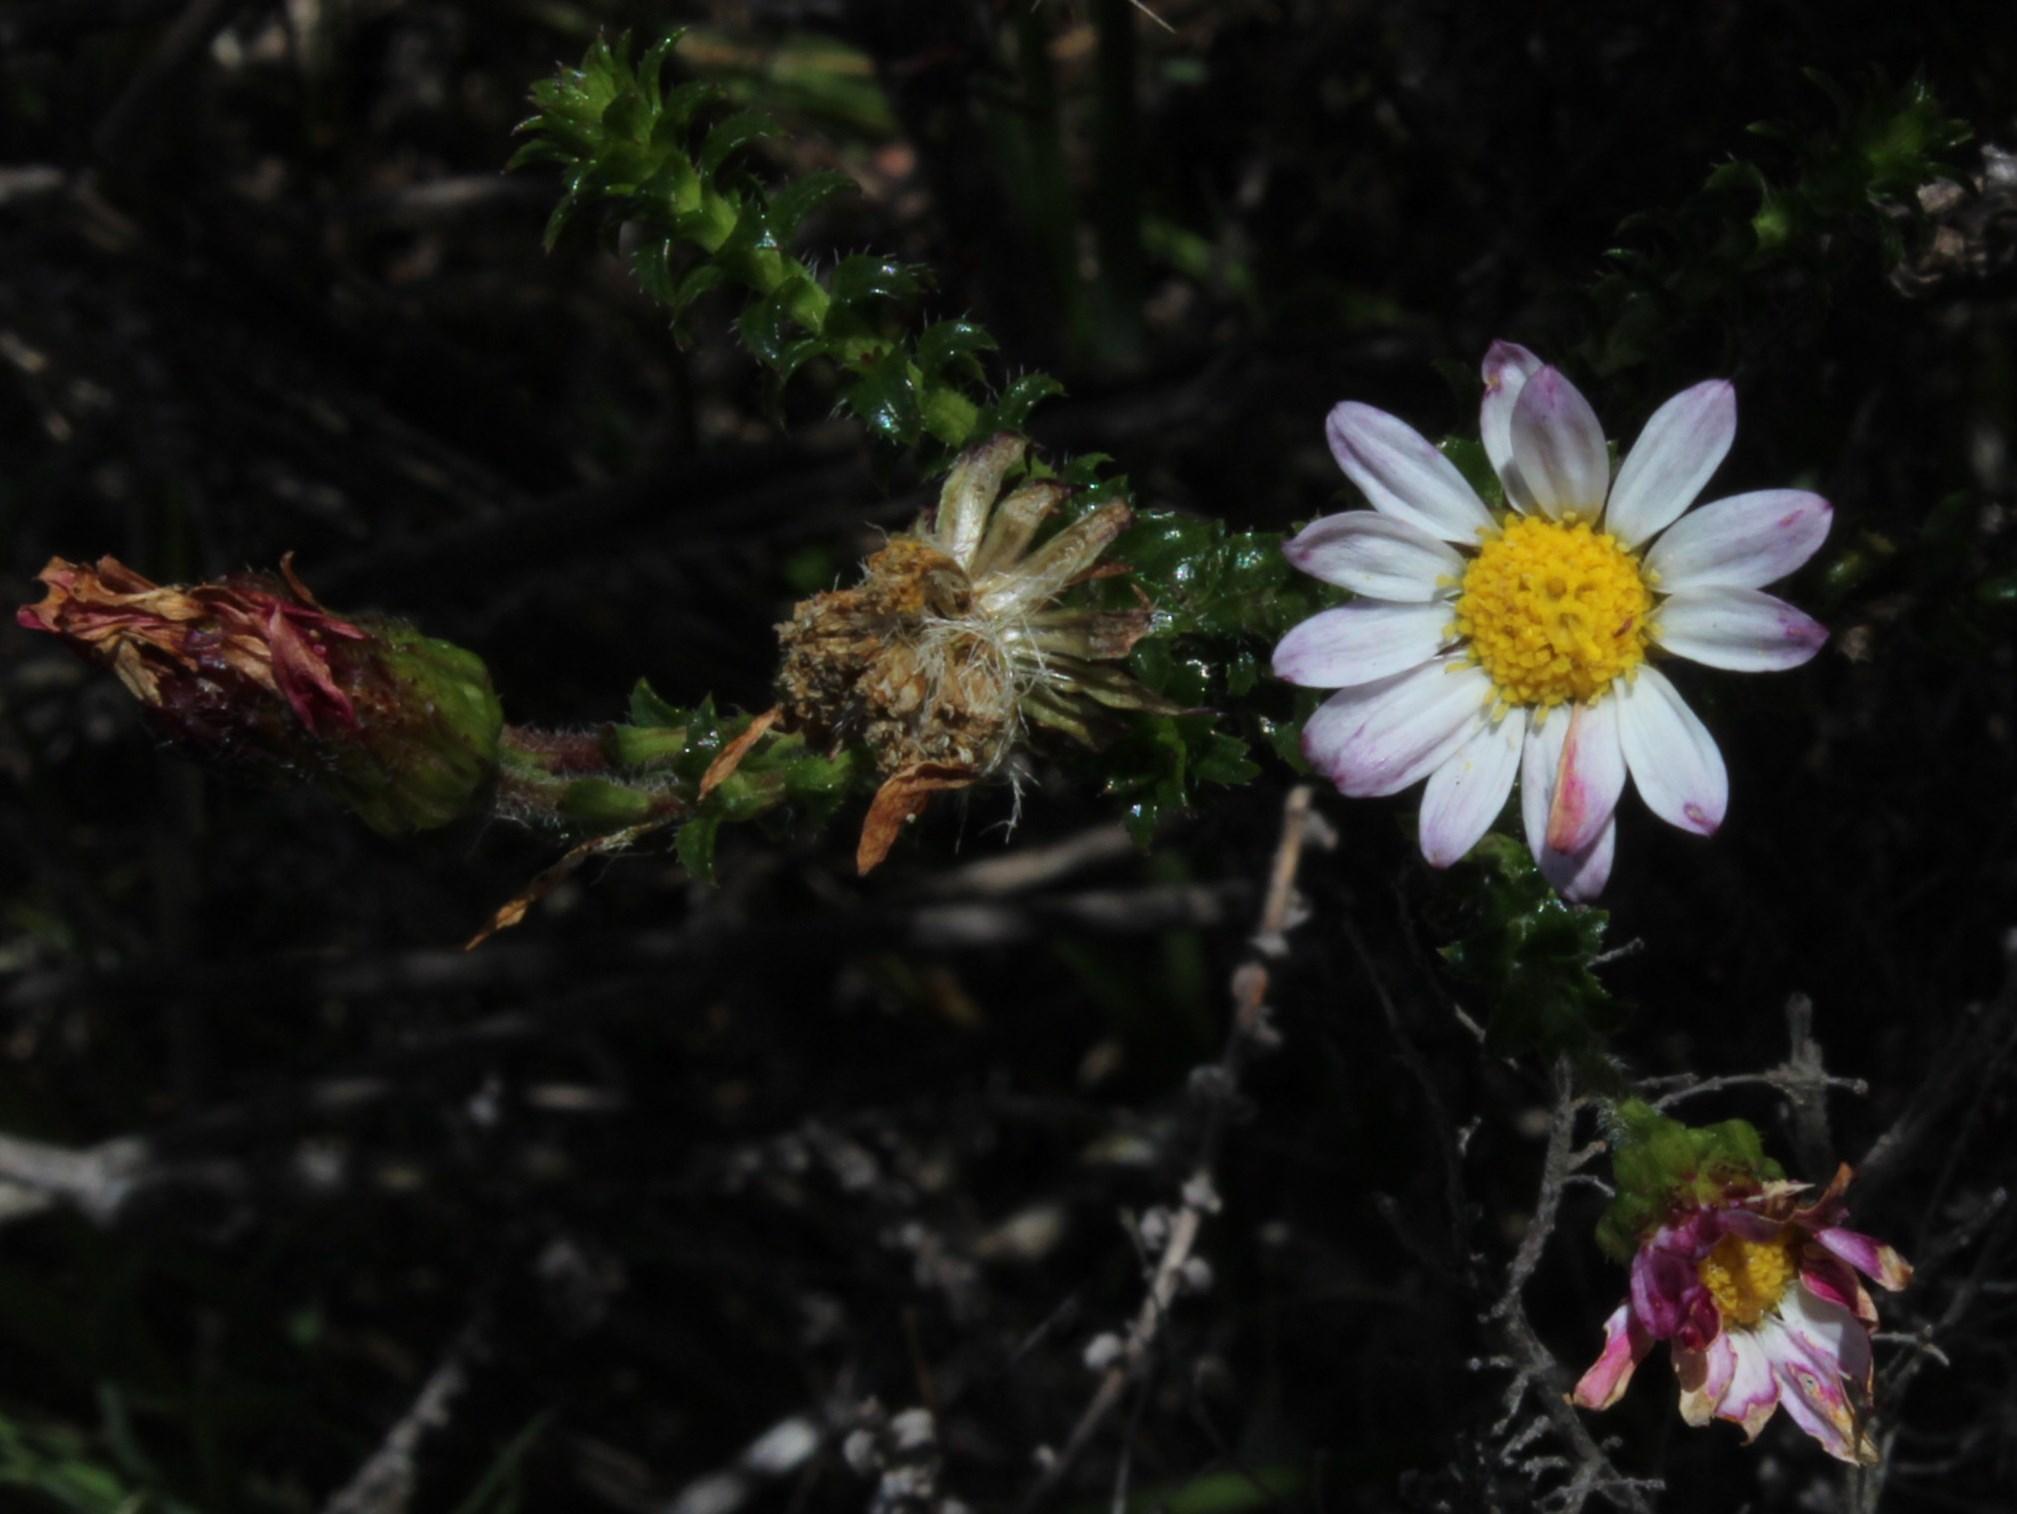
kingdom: Plantae
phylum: Tracheophyta
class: Magnoliopsida
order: Asterales
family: Asteraceae
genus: Polyarrhena
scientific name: Polyarrhena reflexa
